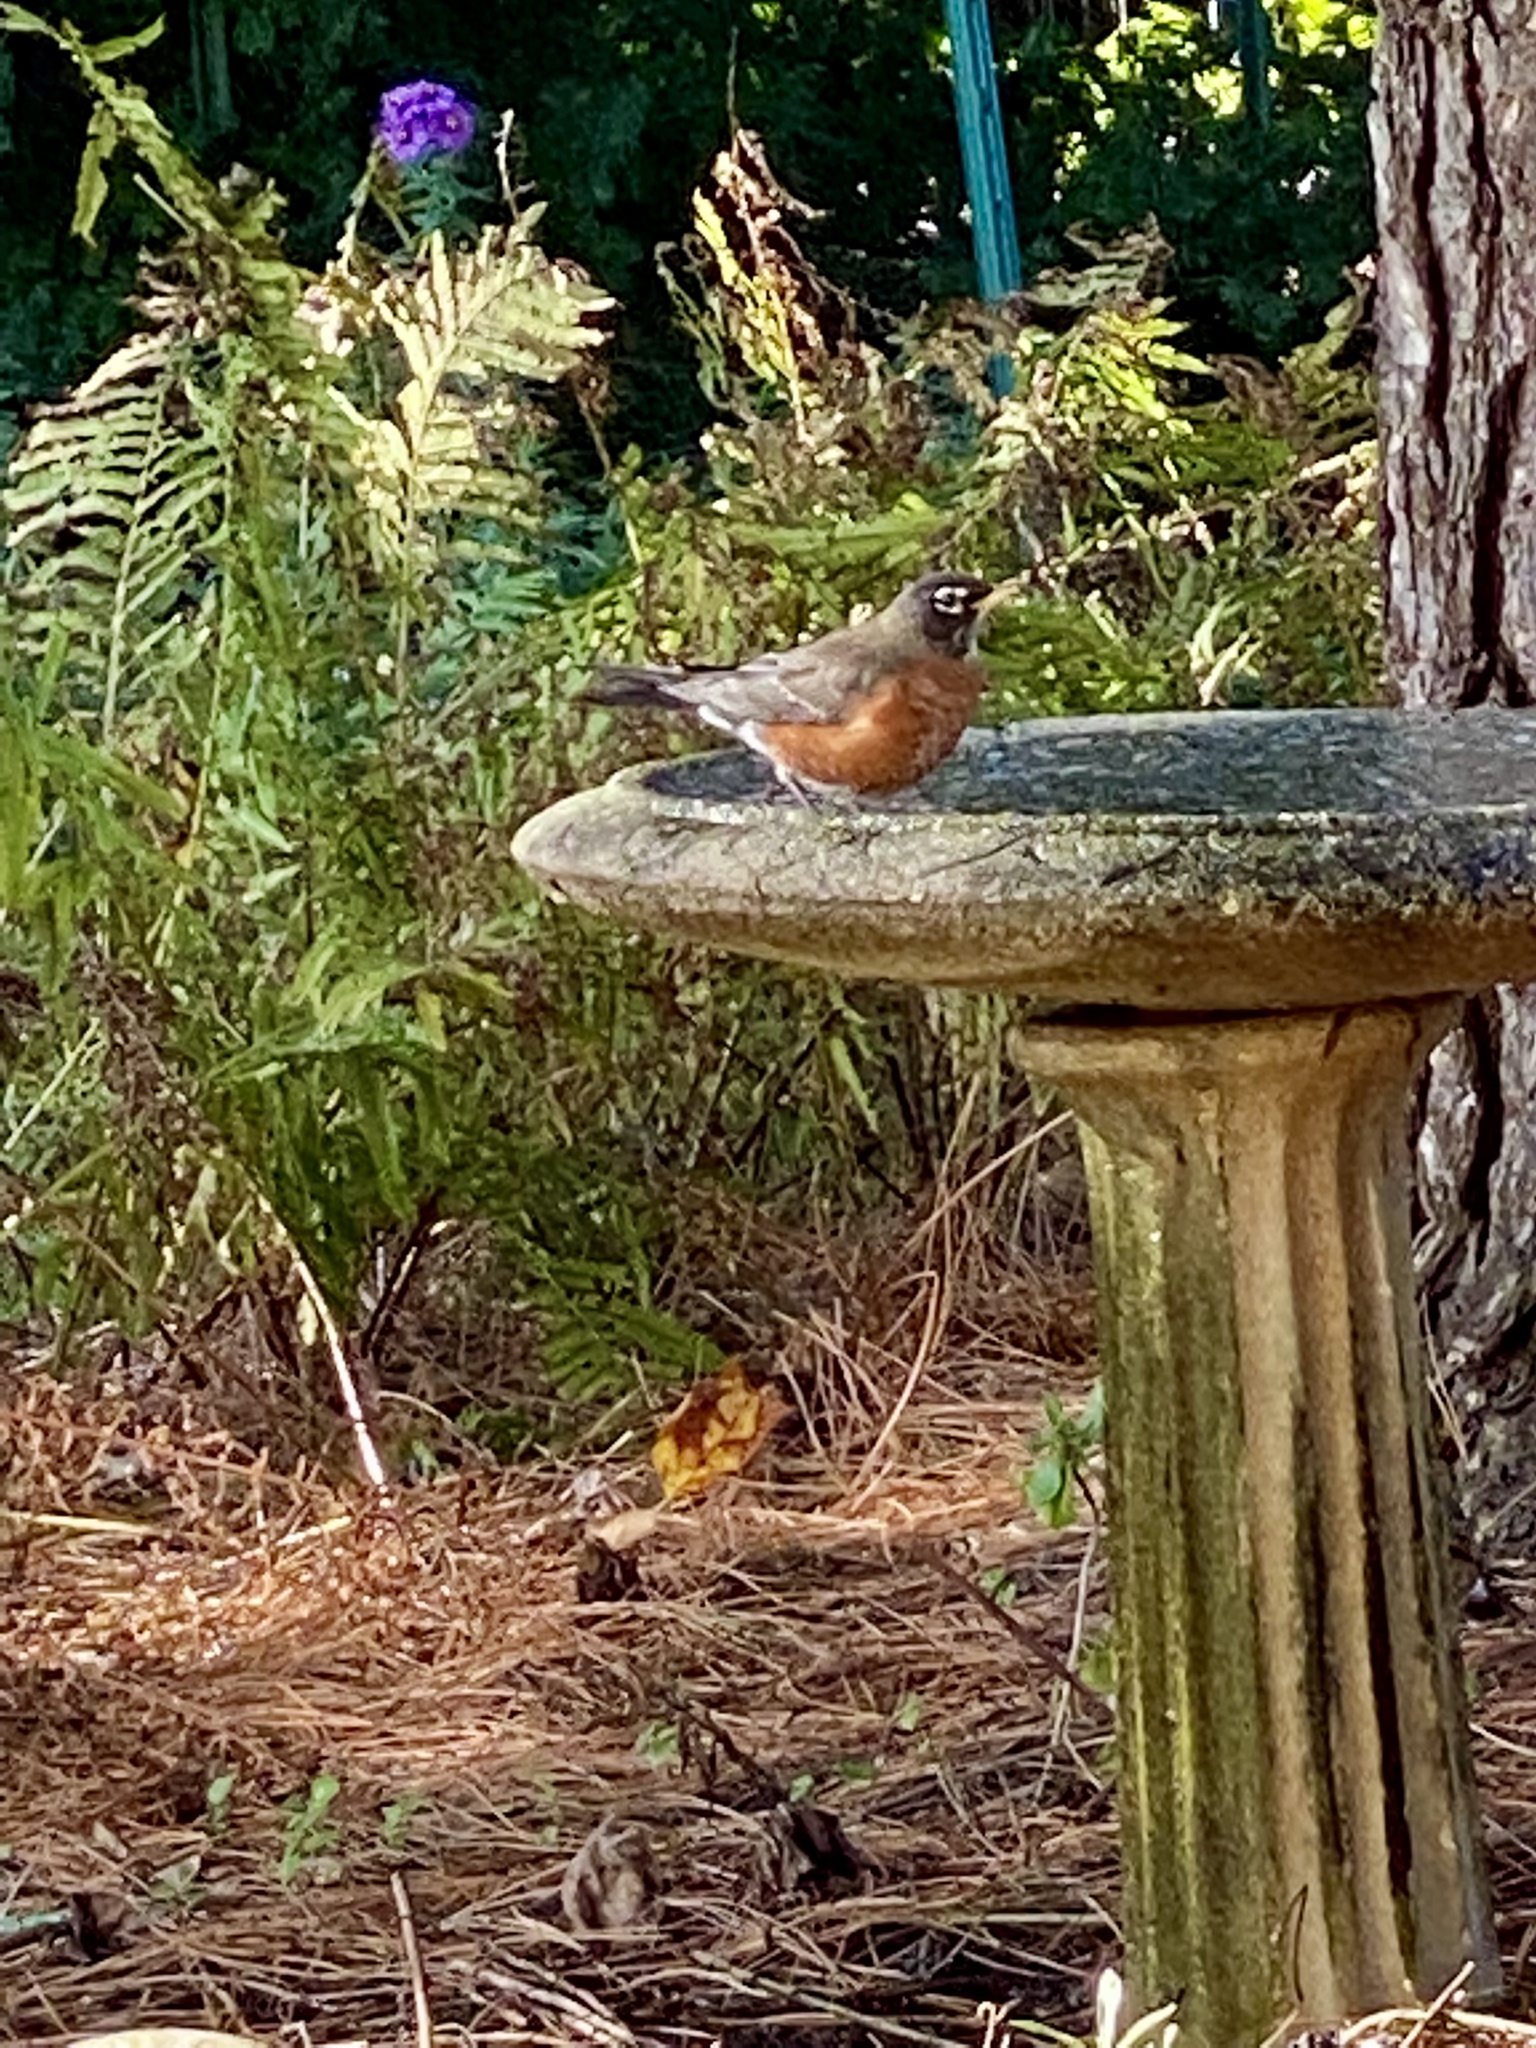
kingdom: Animalia
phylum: Chordata
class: Aves
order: Passeriformes
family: Turdidae
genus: Turdus
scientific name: Turdus migratorius
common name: American robin
